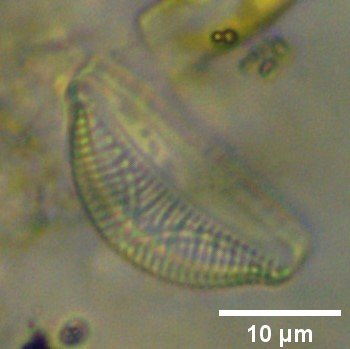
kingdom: Chromista
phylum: Ochrophyta
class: Bacillariophyceae
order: Rhopalodiales
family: Rhopalodiaceae
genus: Epithemia
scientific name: Epithemia sorex
